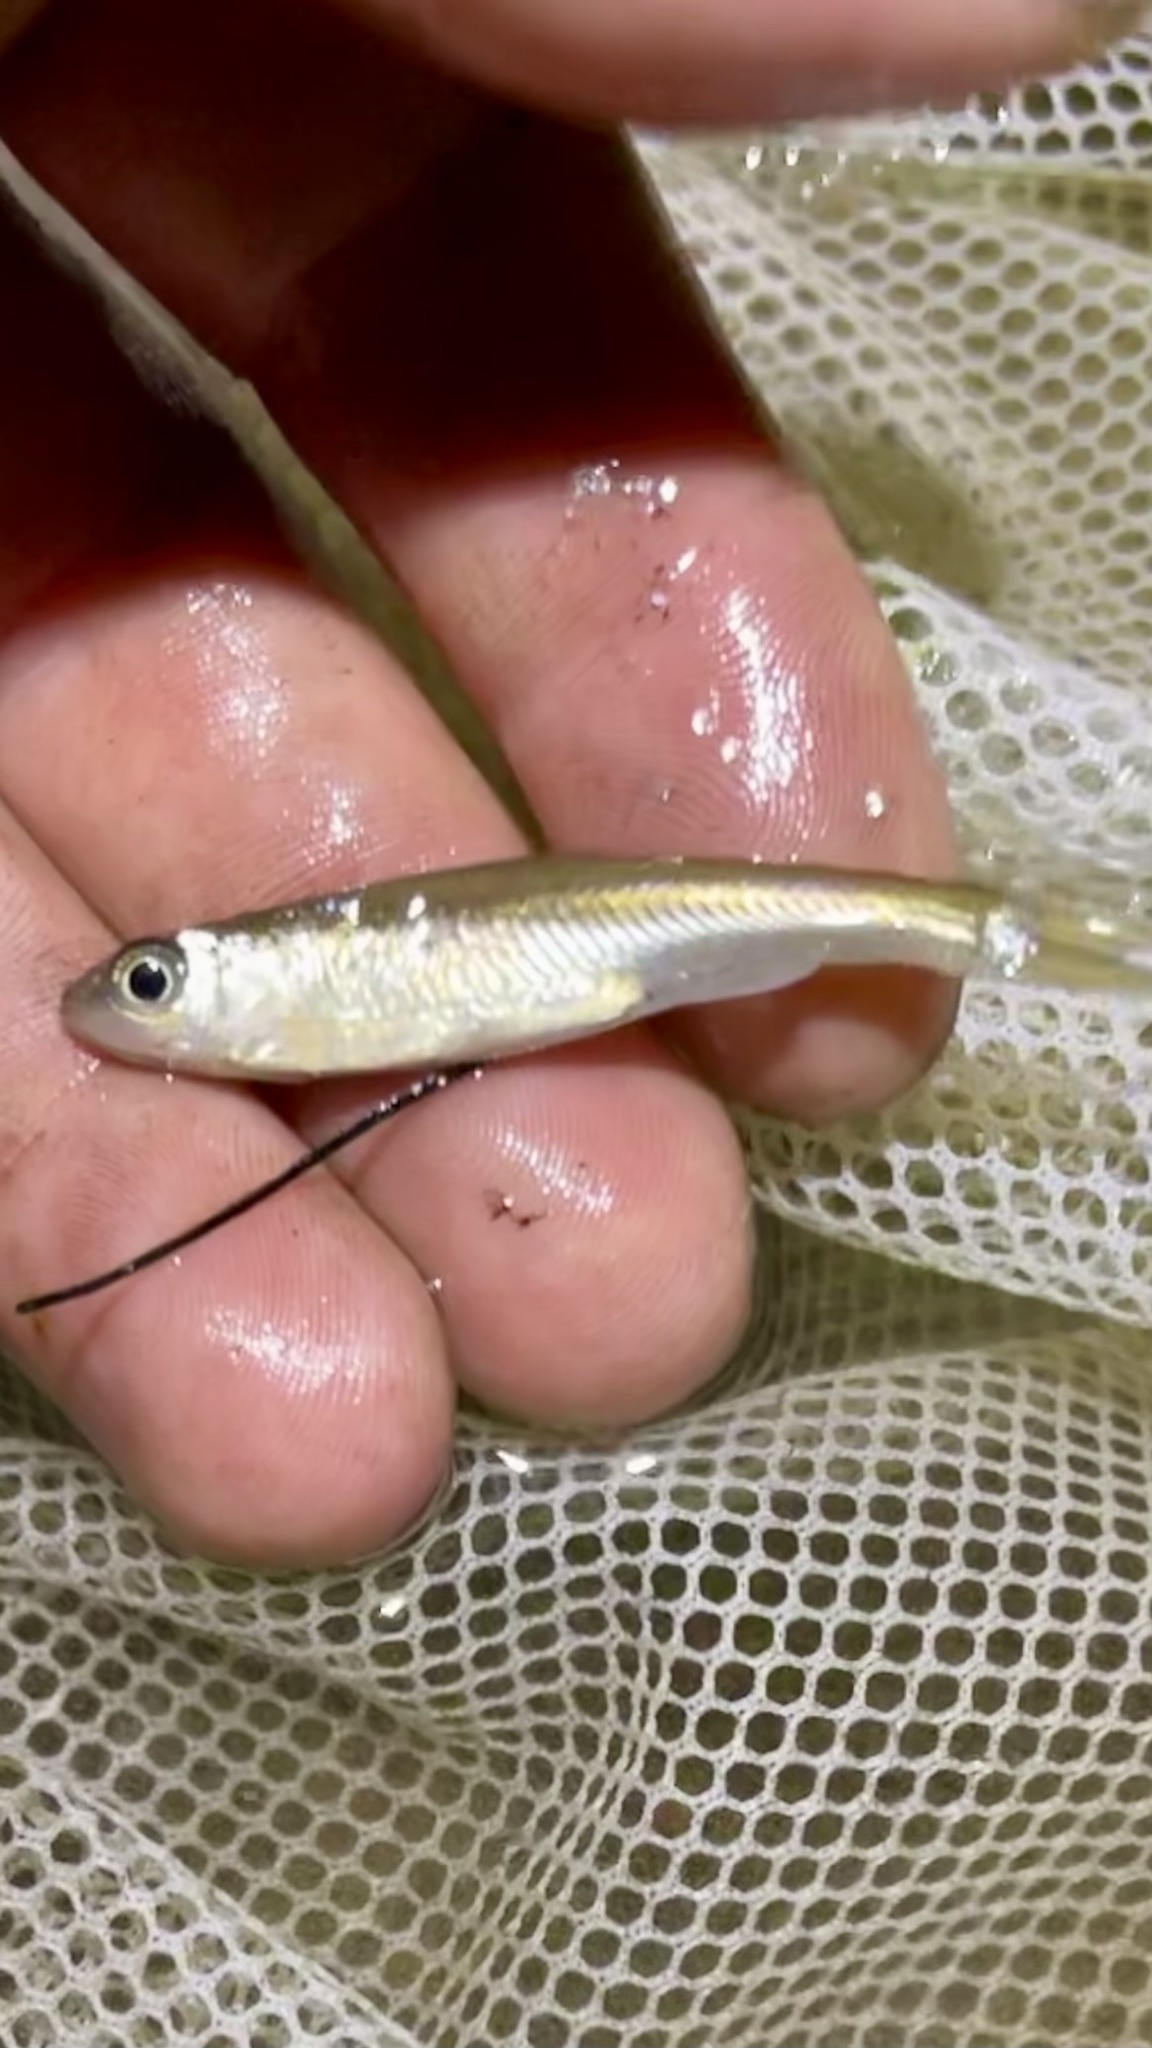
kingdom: Animalia
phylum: Chordata
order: Cypriniformes
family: Cyprinidae
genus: Luxilus
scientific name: Luxilus cornutus
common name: Common shiner
